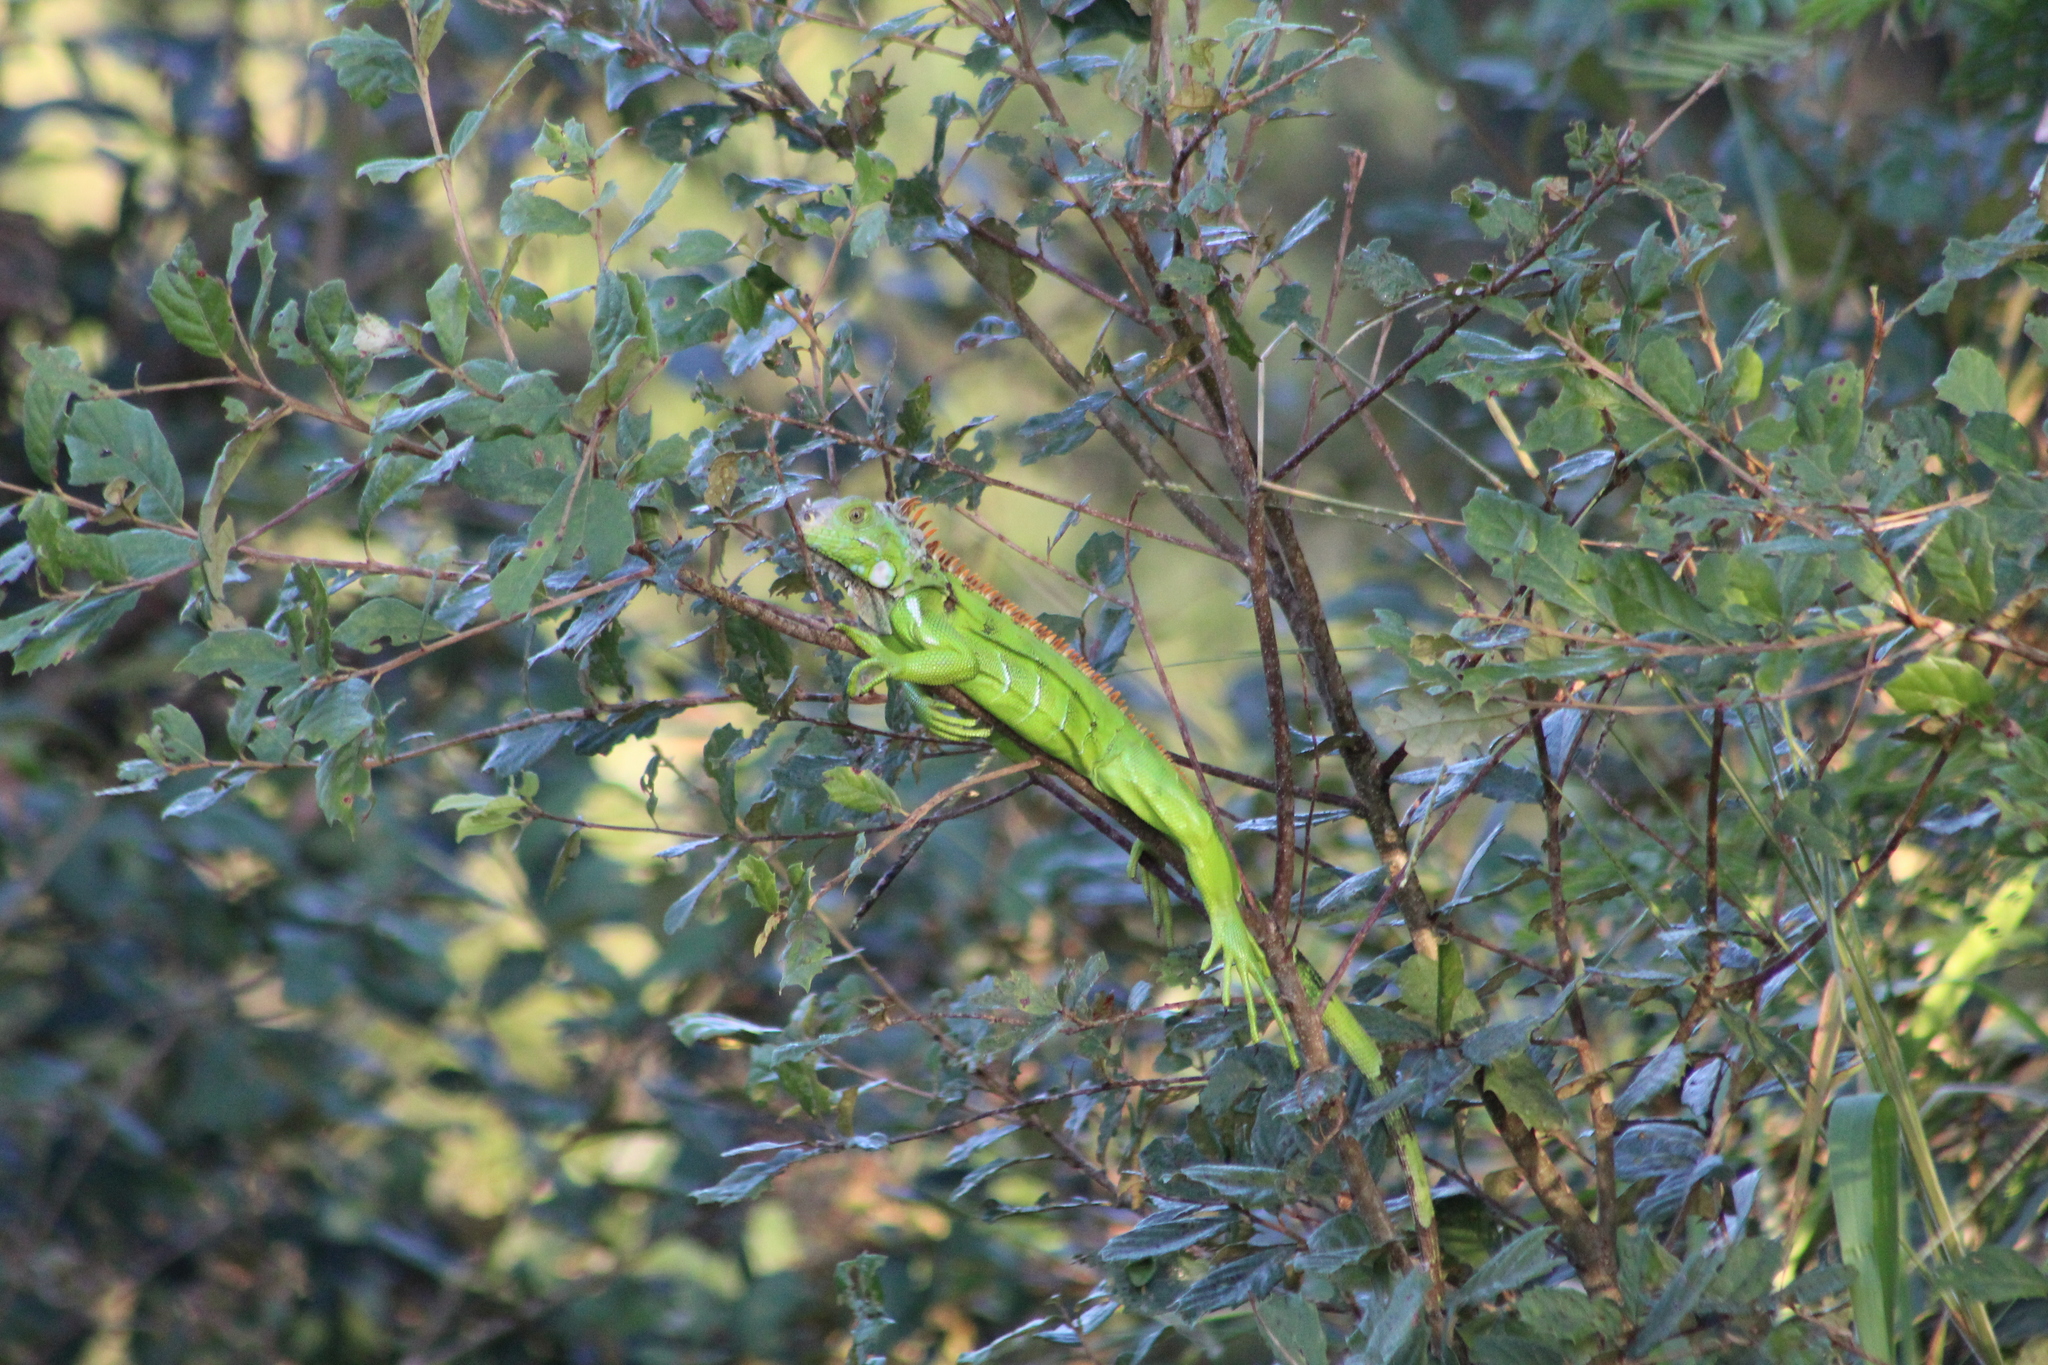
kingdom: Animalia
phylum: Chordata
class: Squamata
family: Iguanidae
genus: Iguana
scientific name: Iguana iguana
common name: Green iguana
